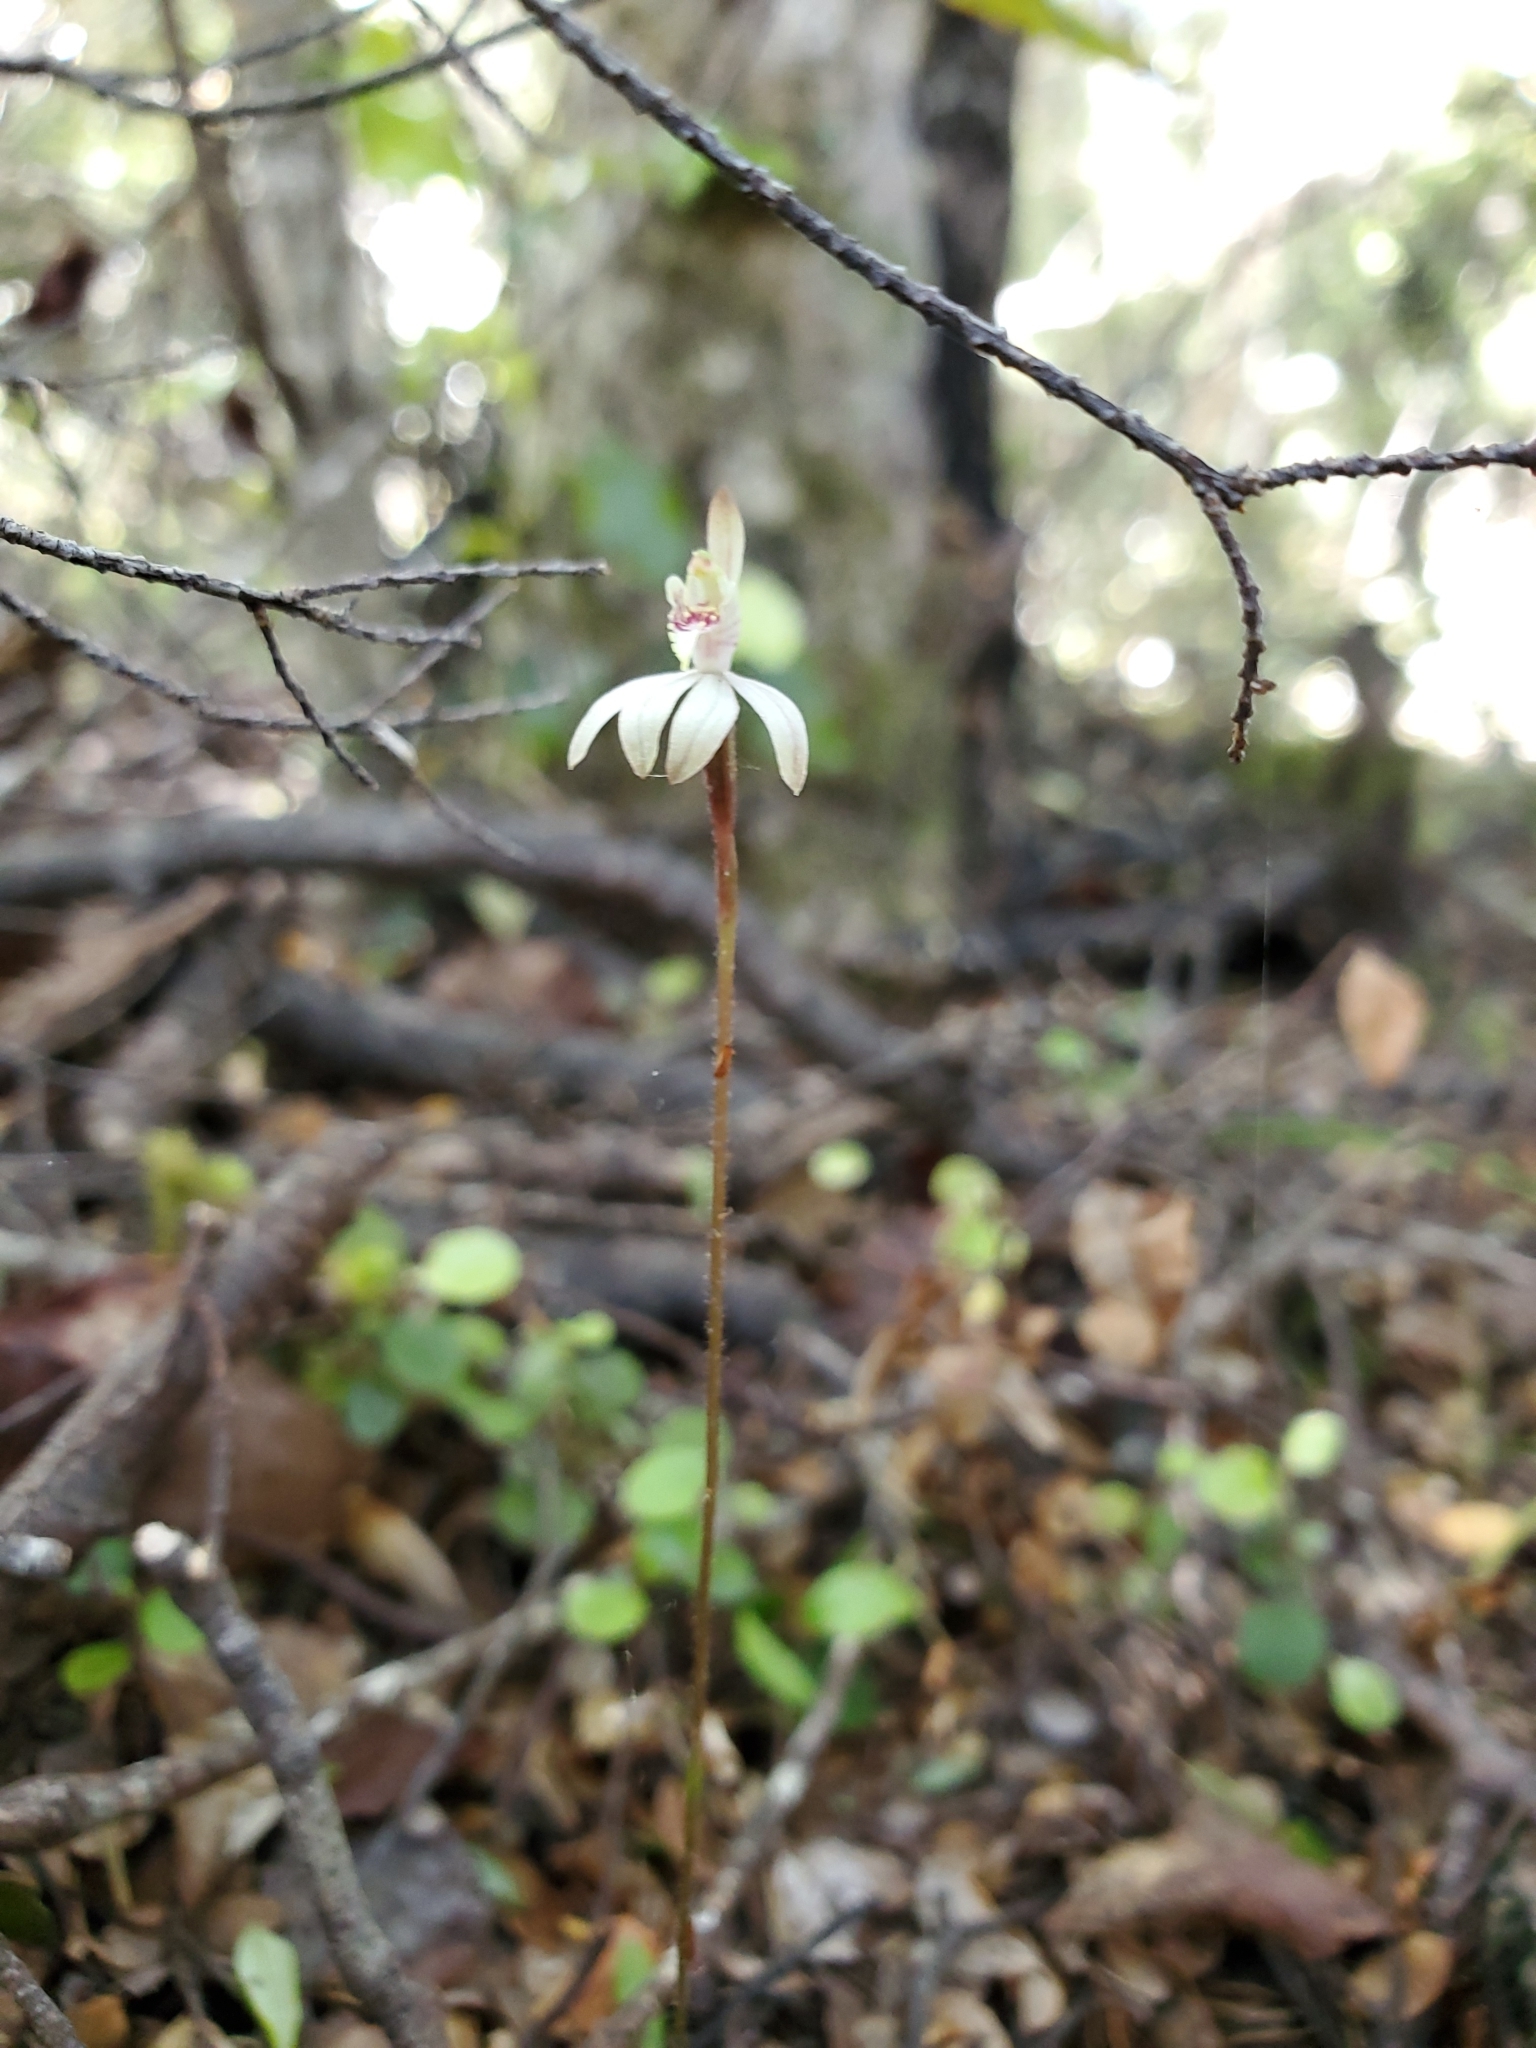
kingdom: Plantae
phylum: Tracheophyta
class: Liliopsida
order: Asparagales
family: Orchidaceae
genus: Caladenia
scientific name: Caladenia chlorostyla
